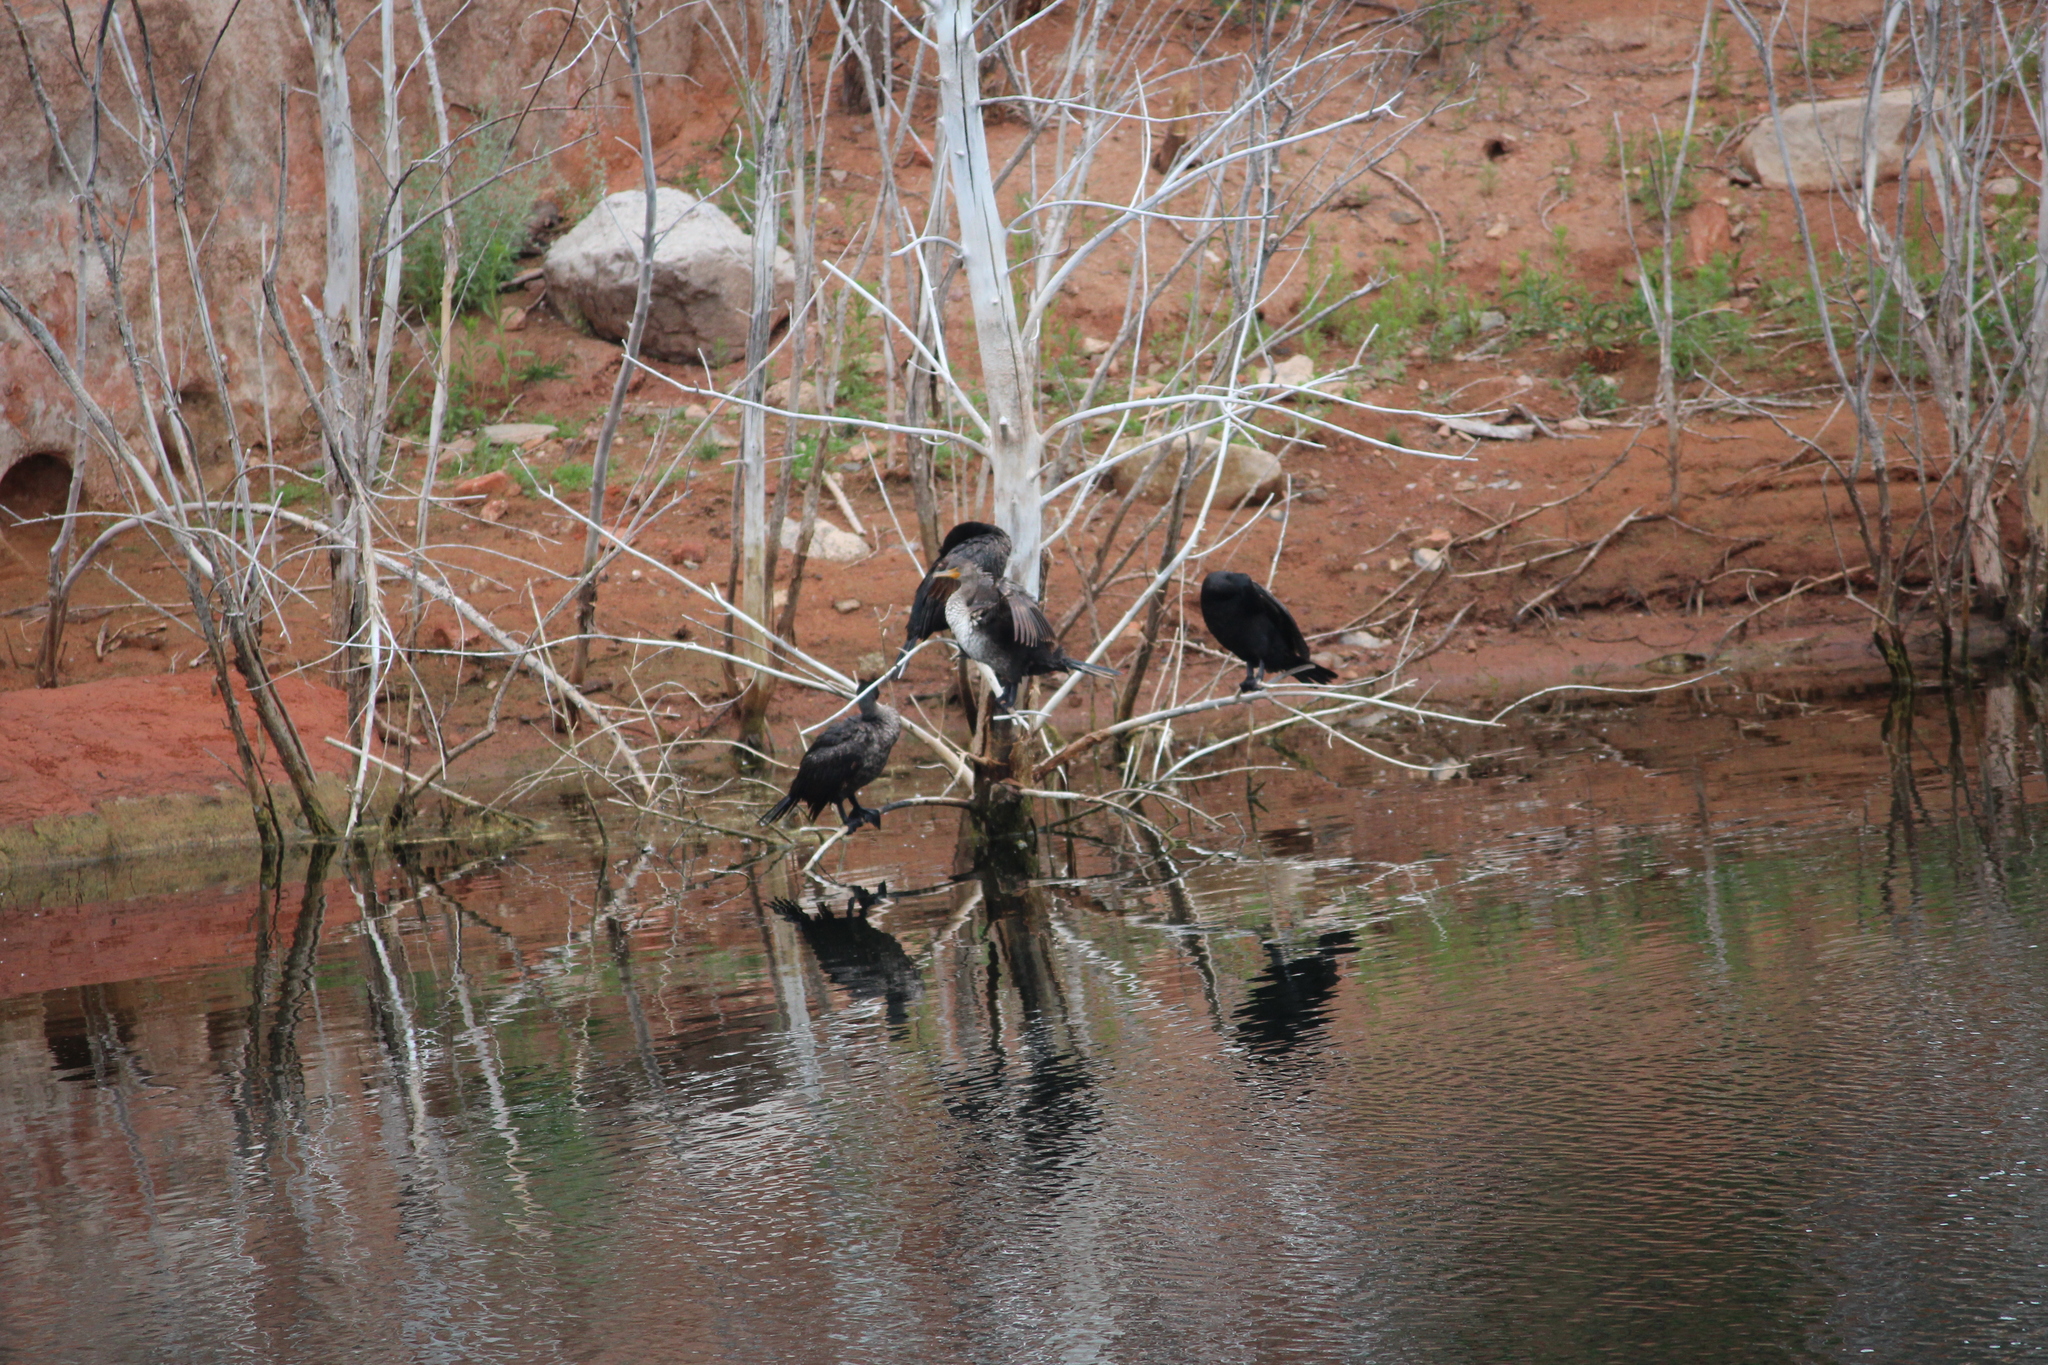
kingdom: Animalia
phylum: Chordata
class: Aves
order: Suliformes
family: Phalacrocoracidae
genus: Phalacrocorax
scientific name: Phalacrocorax auritus
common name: Double-crested cormorant
